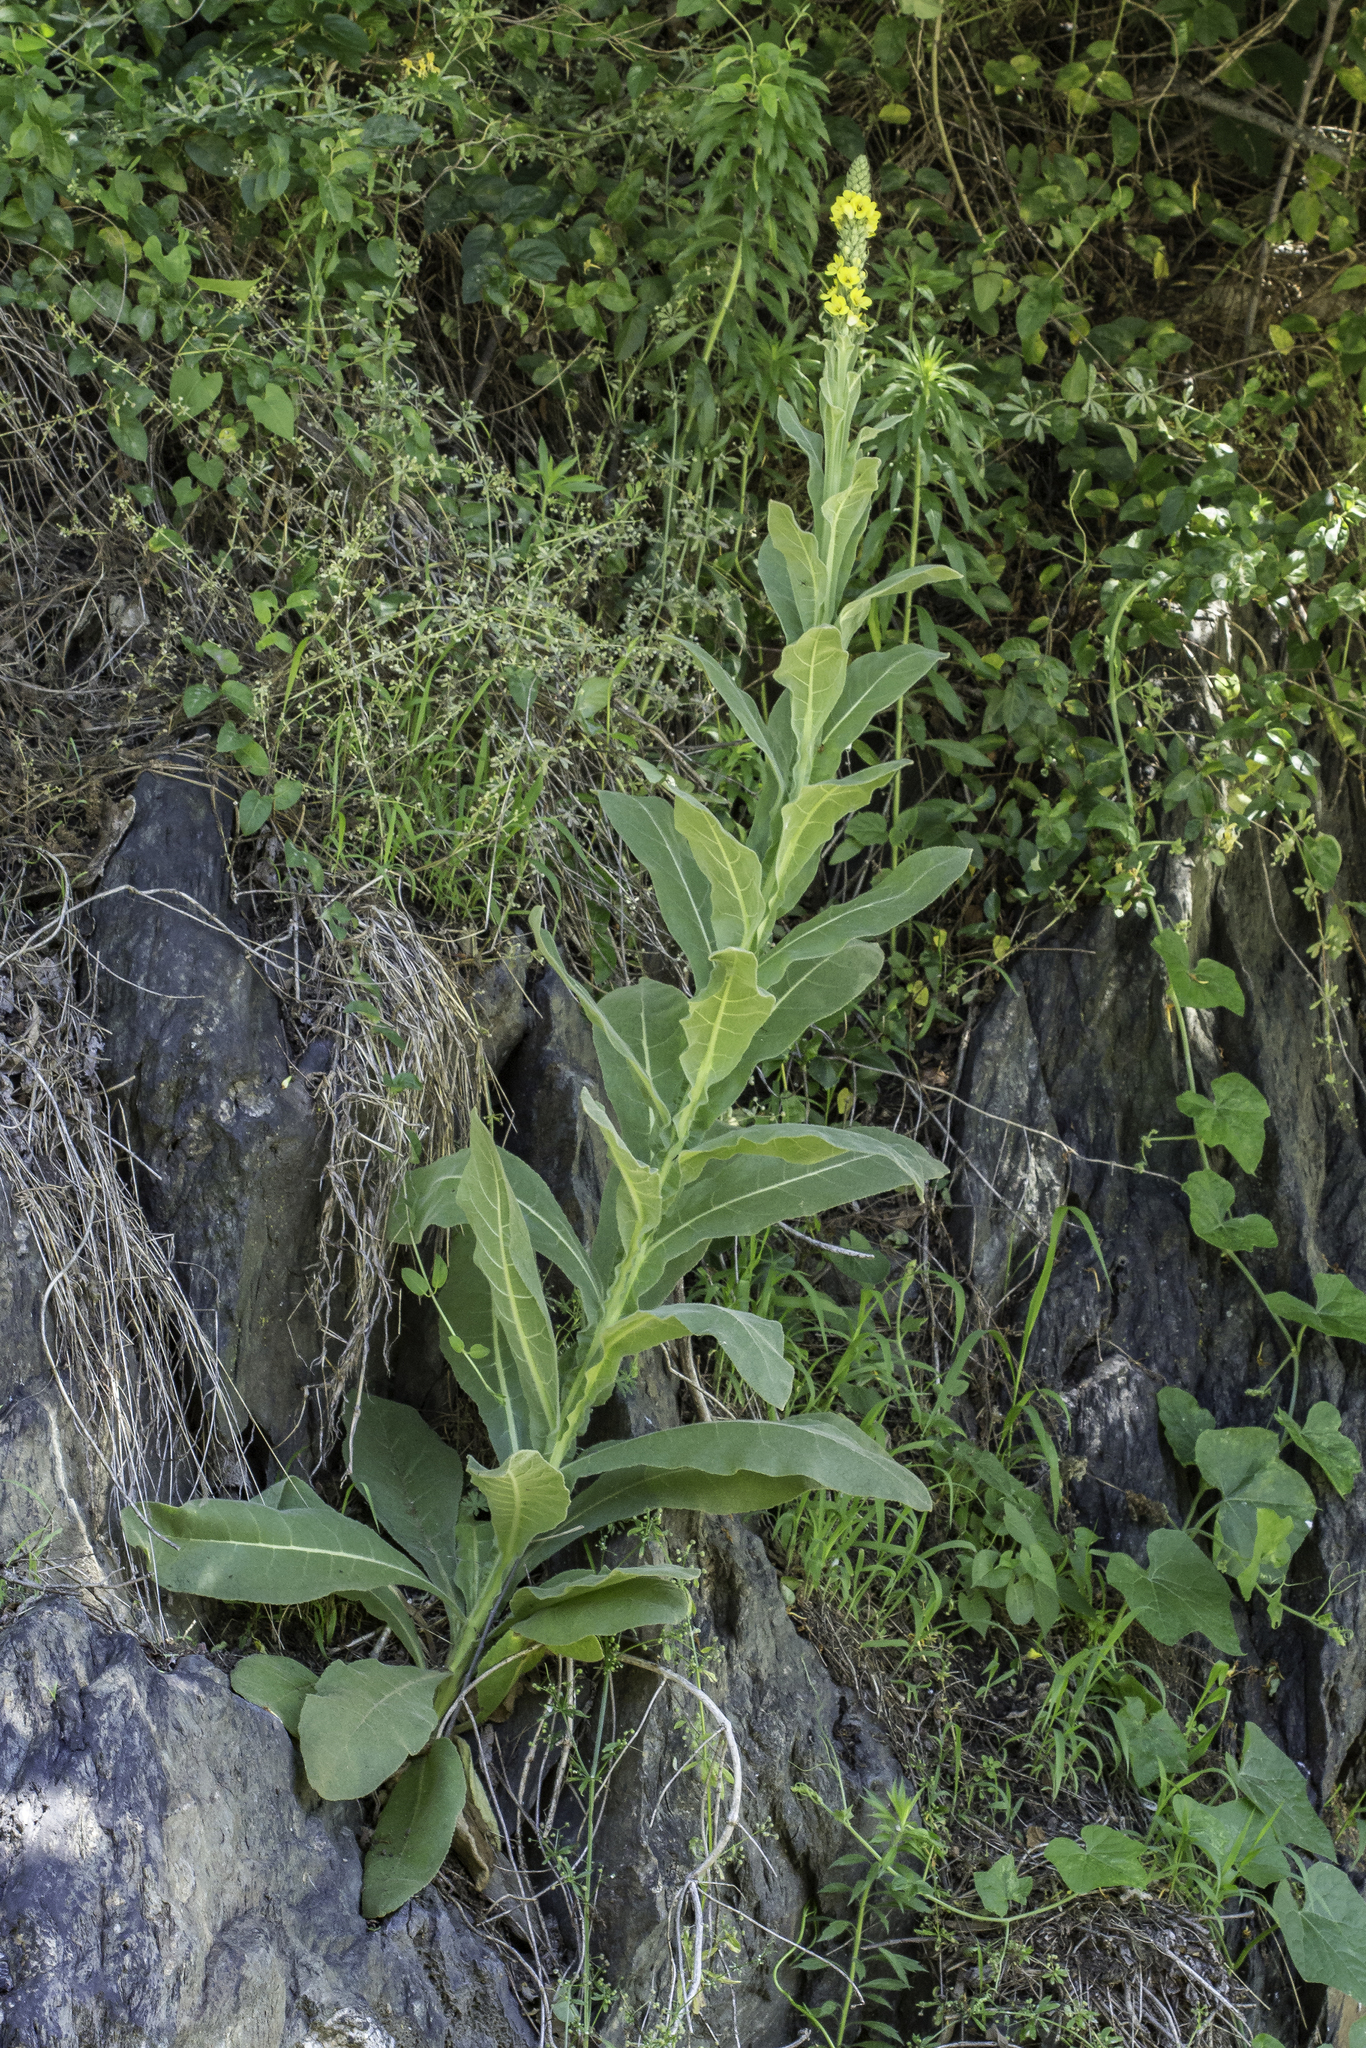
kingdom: Plantae
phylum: Tracheophyta
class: Magnoliopsida
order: Lamiales
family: Scrophulariaceae
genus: Verbascum
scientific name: Verbascum thapsus
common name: Common mullein
